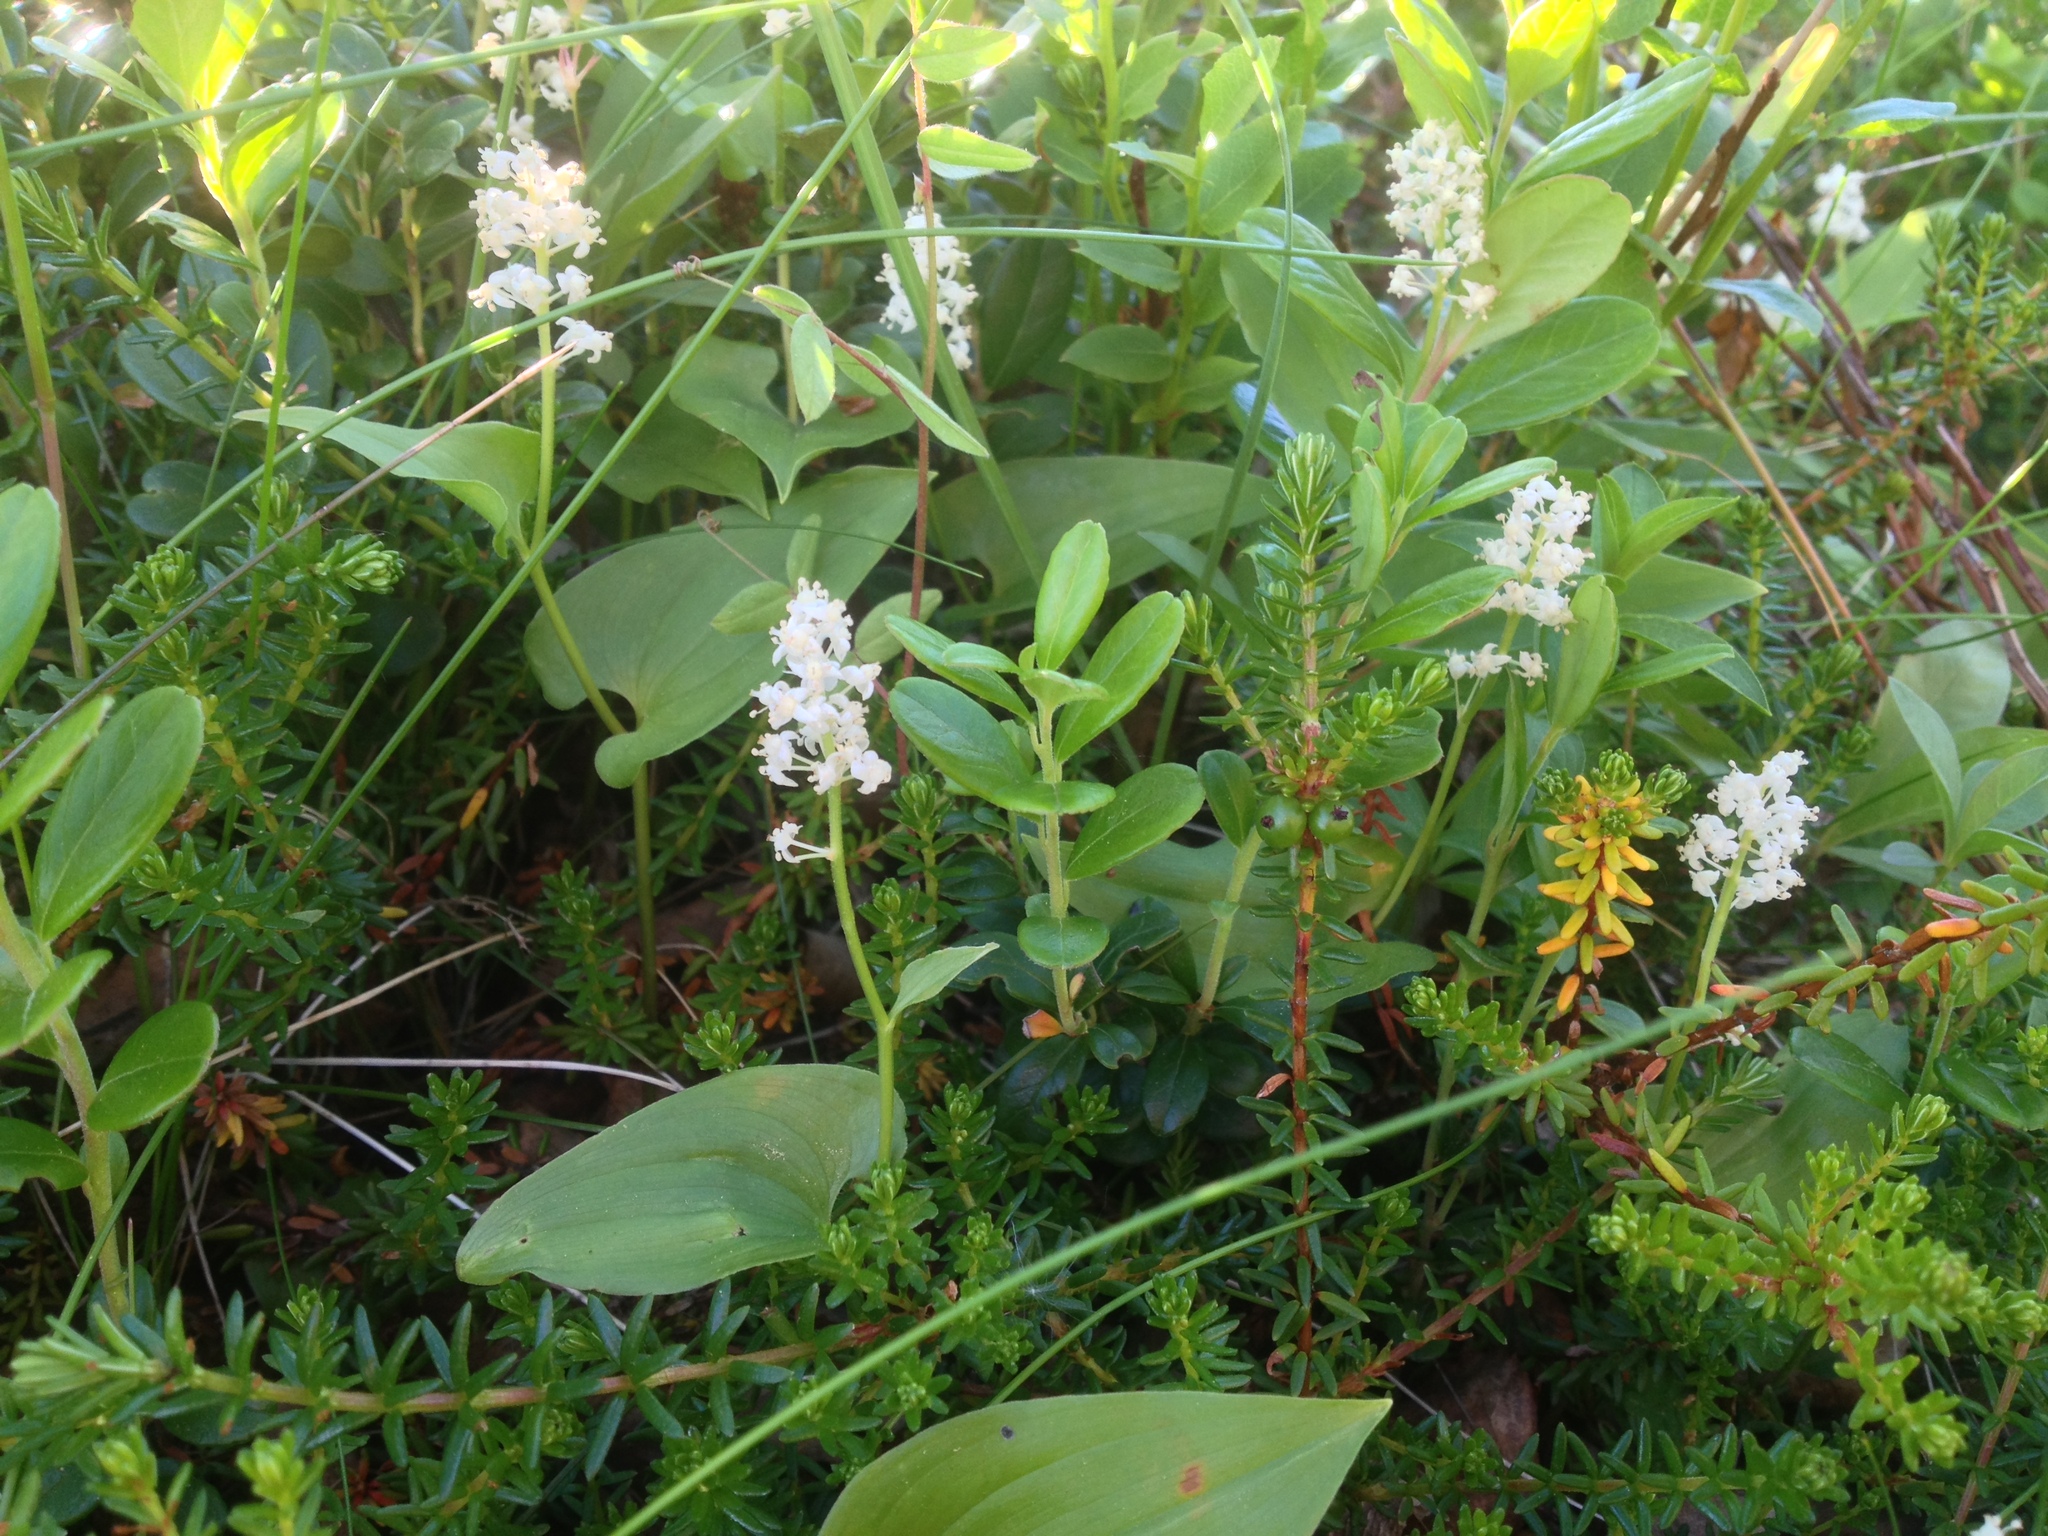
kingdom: Plantae
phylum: Tracheophyta
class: Liliopsida
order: Asparagales
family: Asparagaceae
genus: Maianthemum
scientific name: Maianthemum bifolium
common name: May lily
